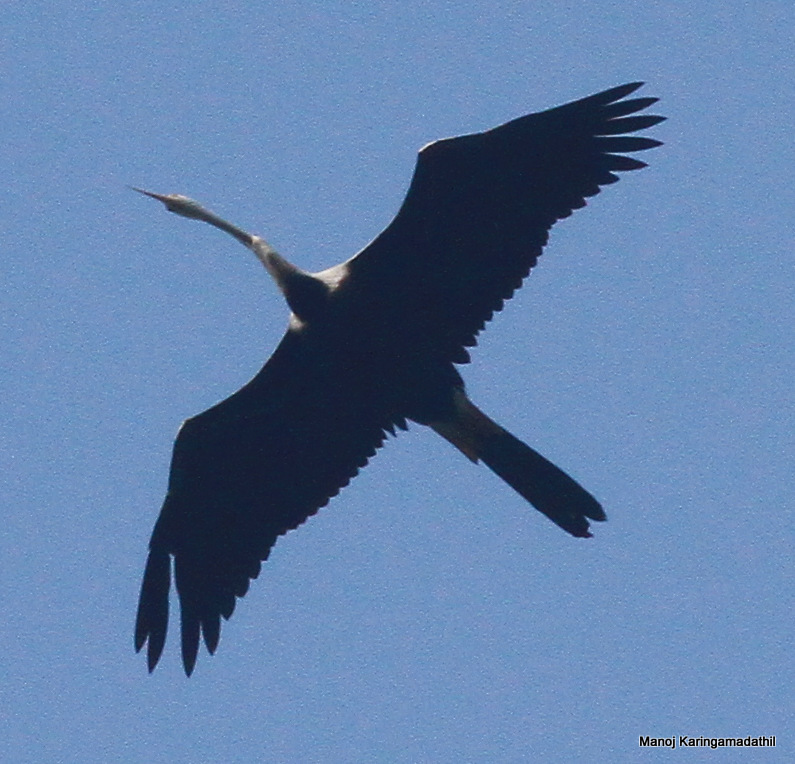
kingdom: Animalia
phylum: Chordata
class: Aves
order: Suliformes
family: Anhingidae
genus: Anhinga
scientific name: Anhinga melanogaster
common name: Oriental darter
